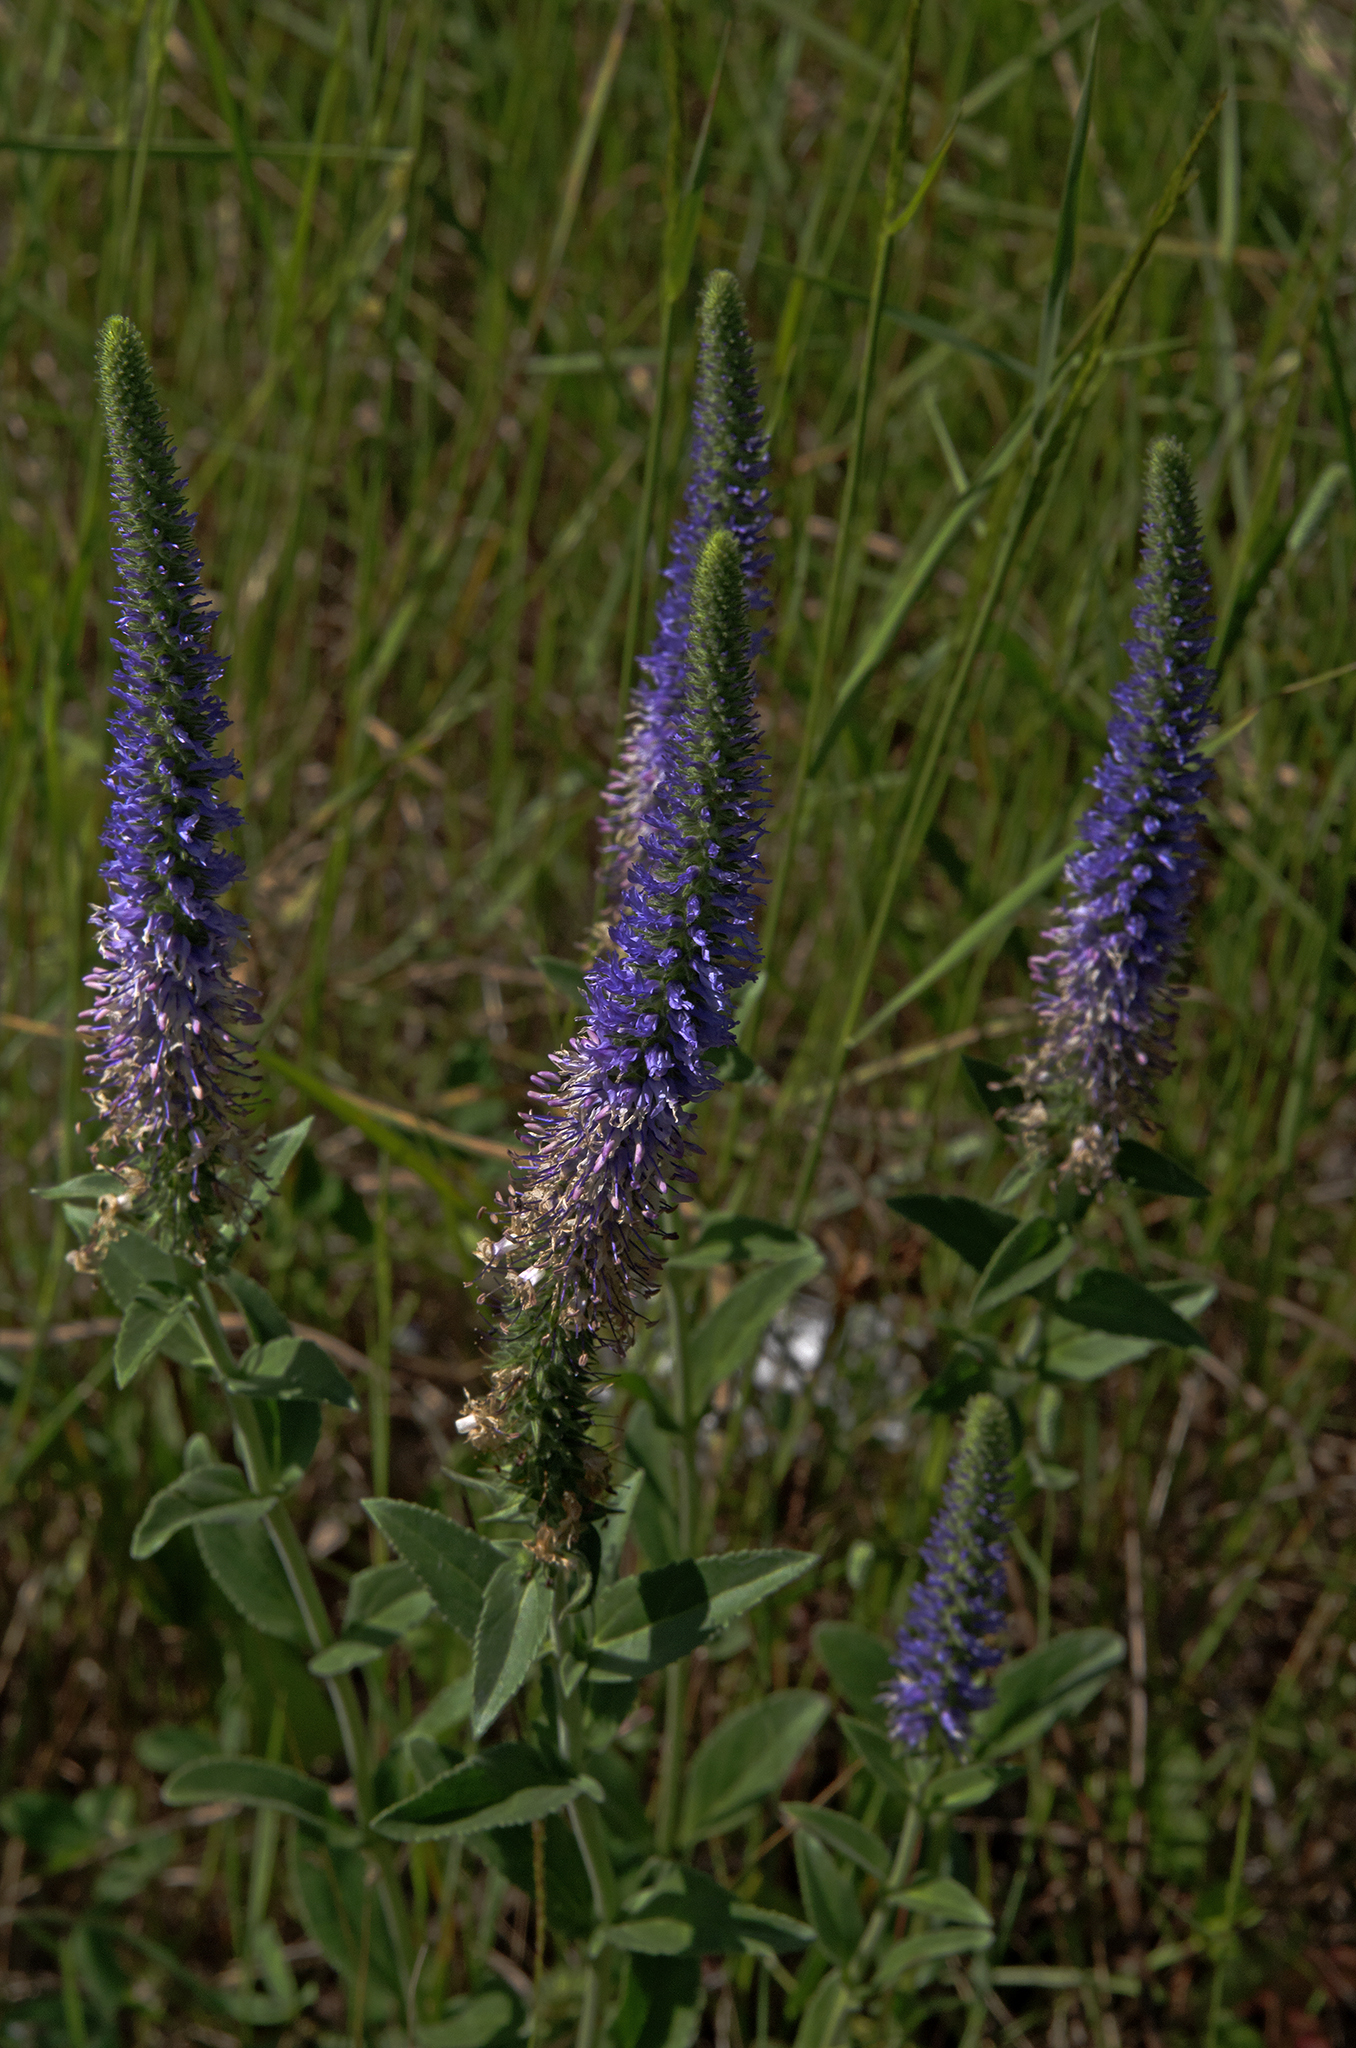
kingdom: Plantae
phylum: Tracheophyta
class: Magnoliopsida
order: Lamiales
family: Plantaginaceae
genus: Veronica
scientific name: Veronica orchidea
